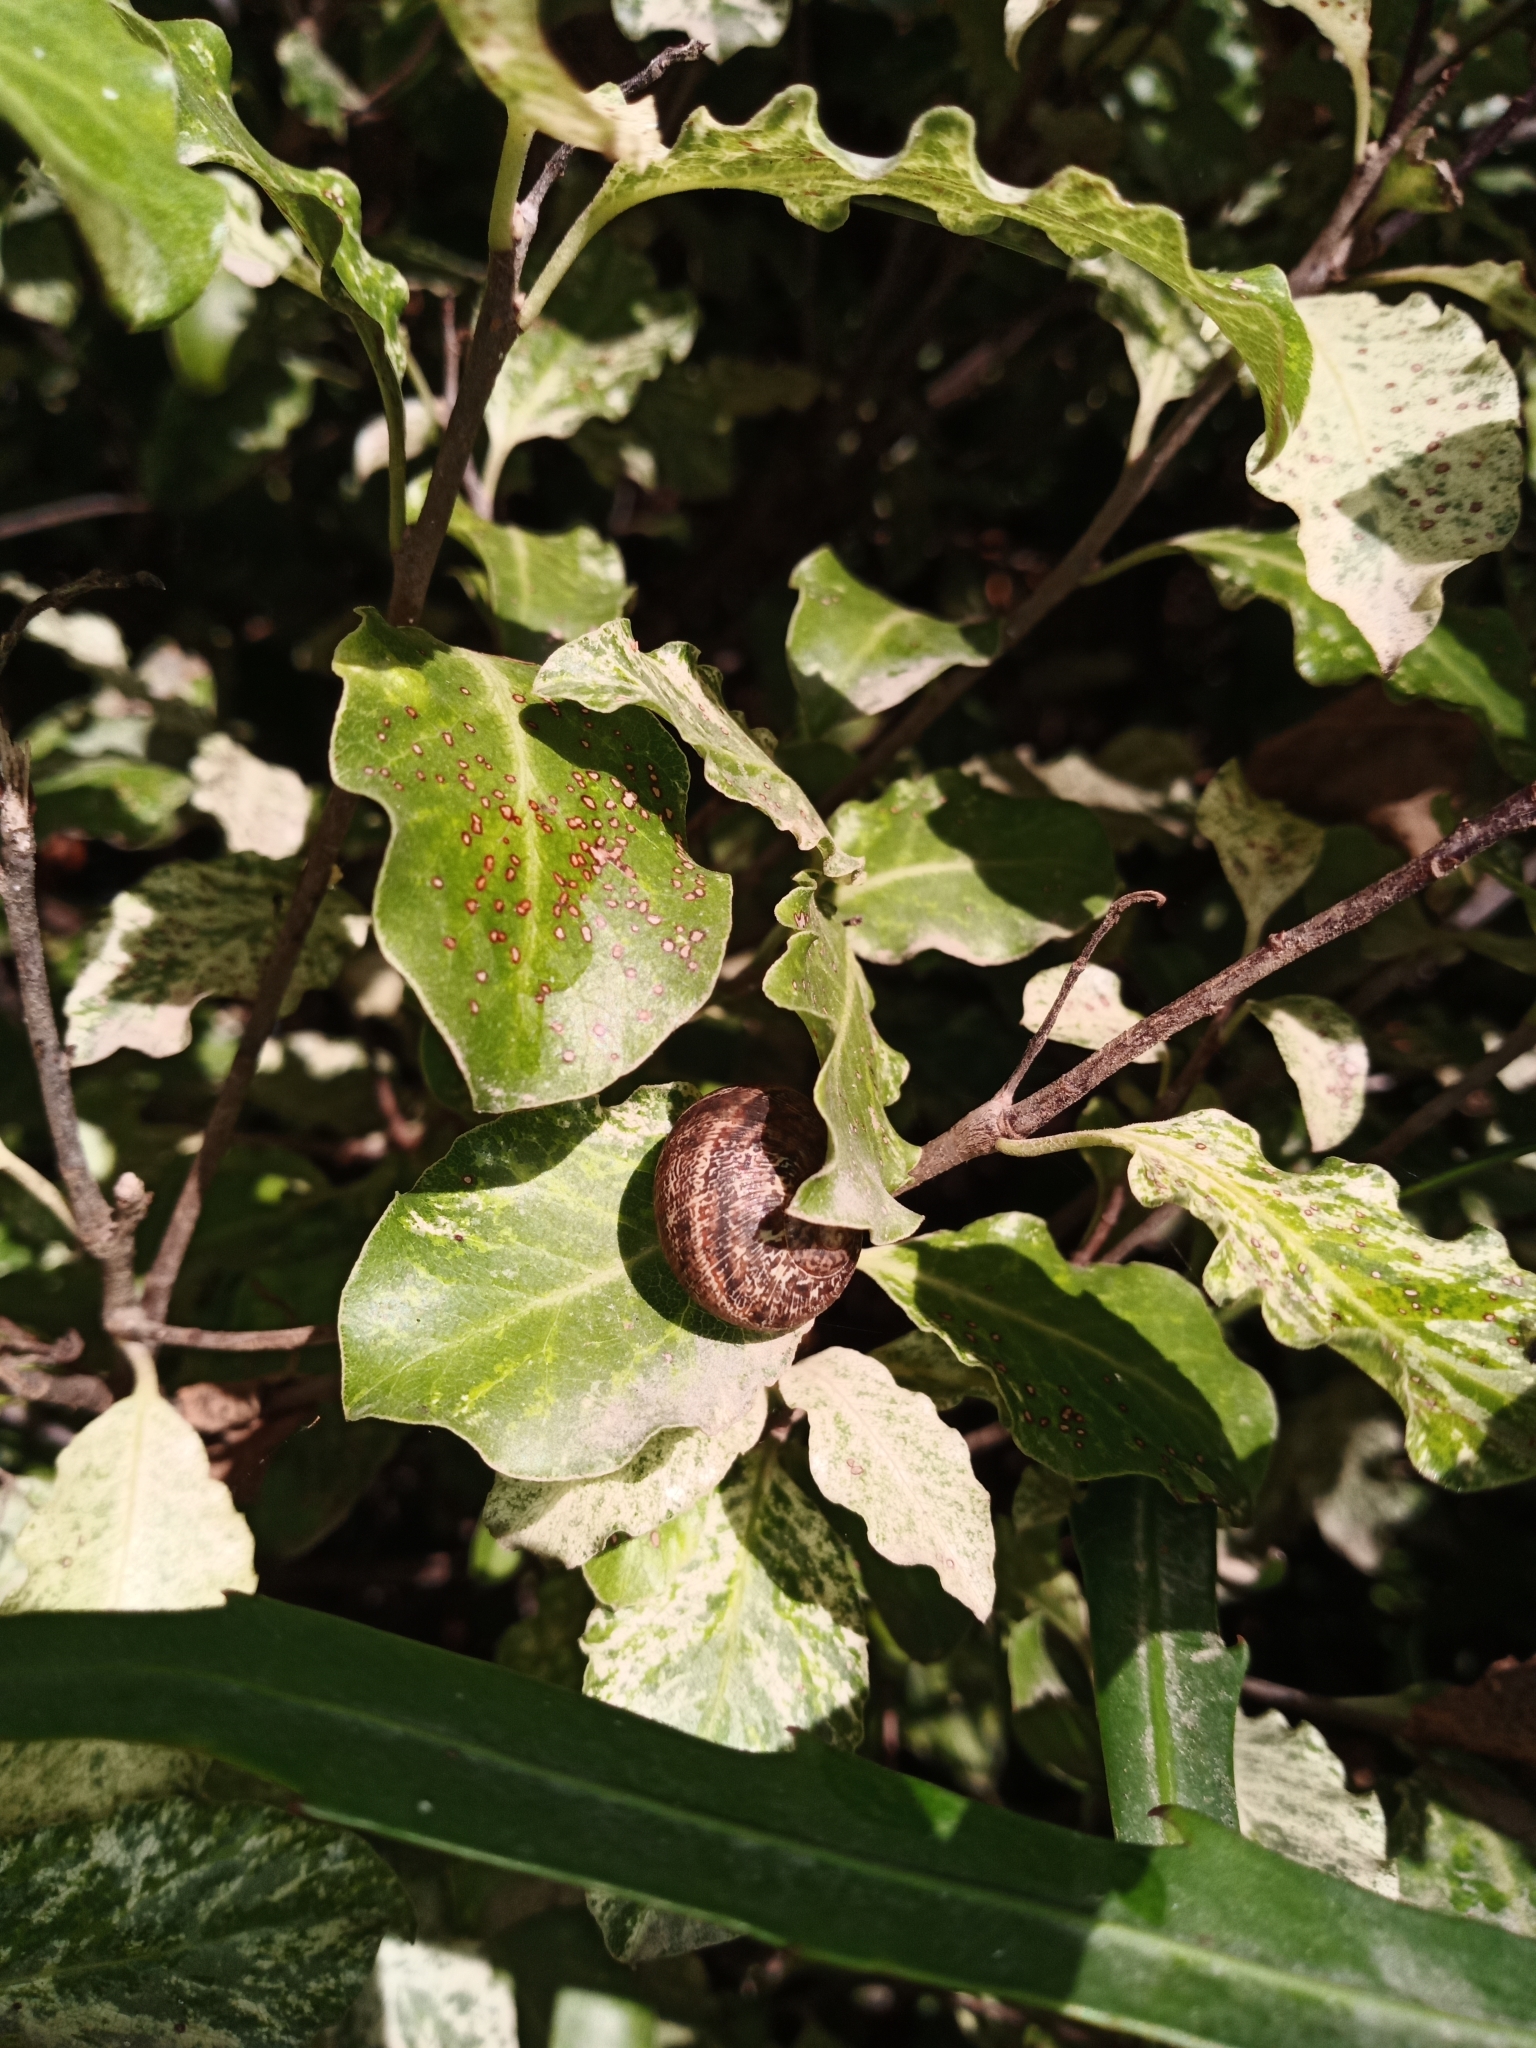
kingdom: Animalia
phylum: Mollusca
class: Gastropoda
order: Stylommatophora
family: Helicidae
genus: Cornu
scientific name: Cornu aspersum
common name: Brown garden snail
